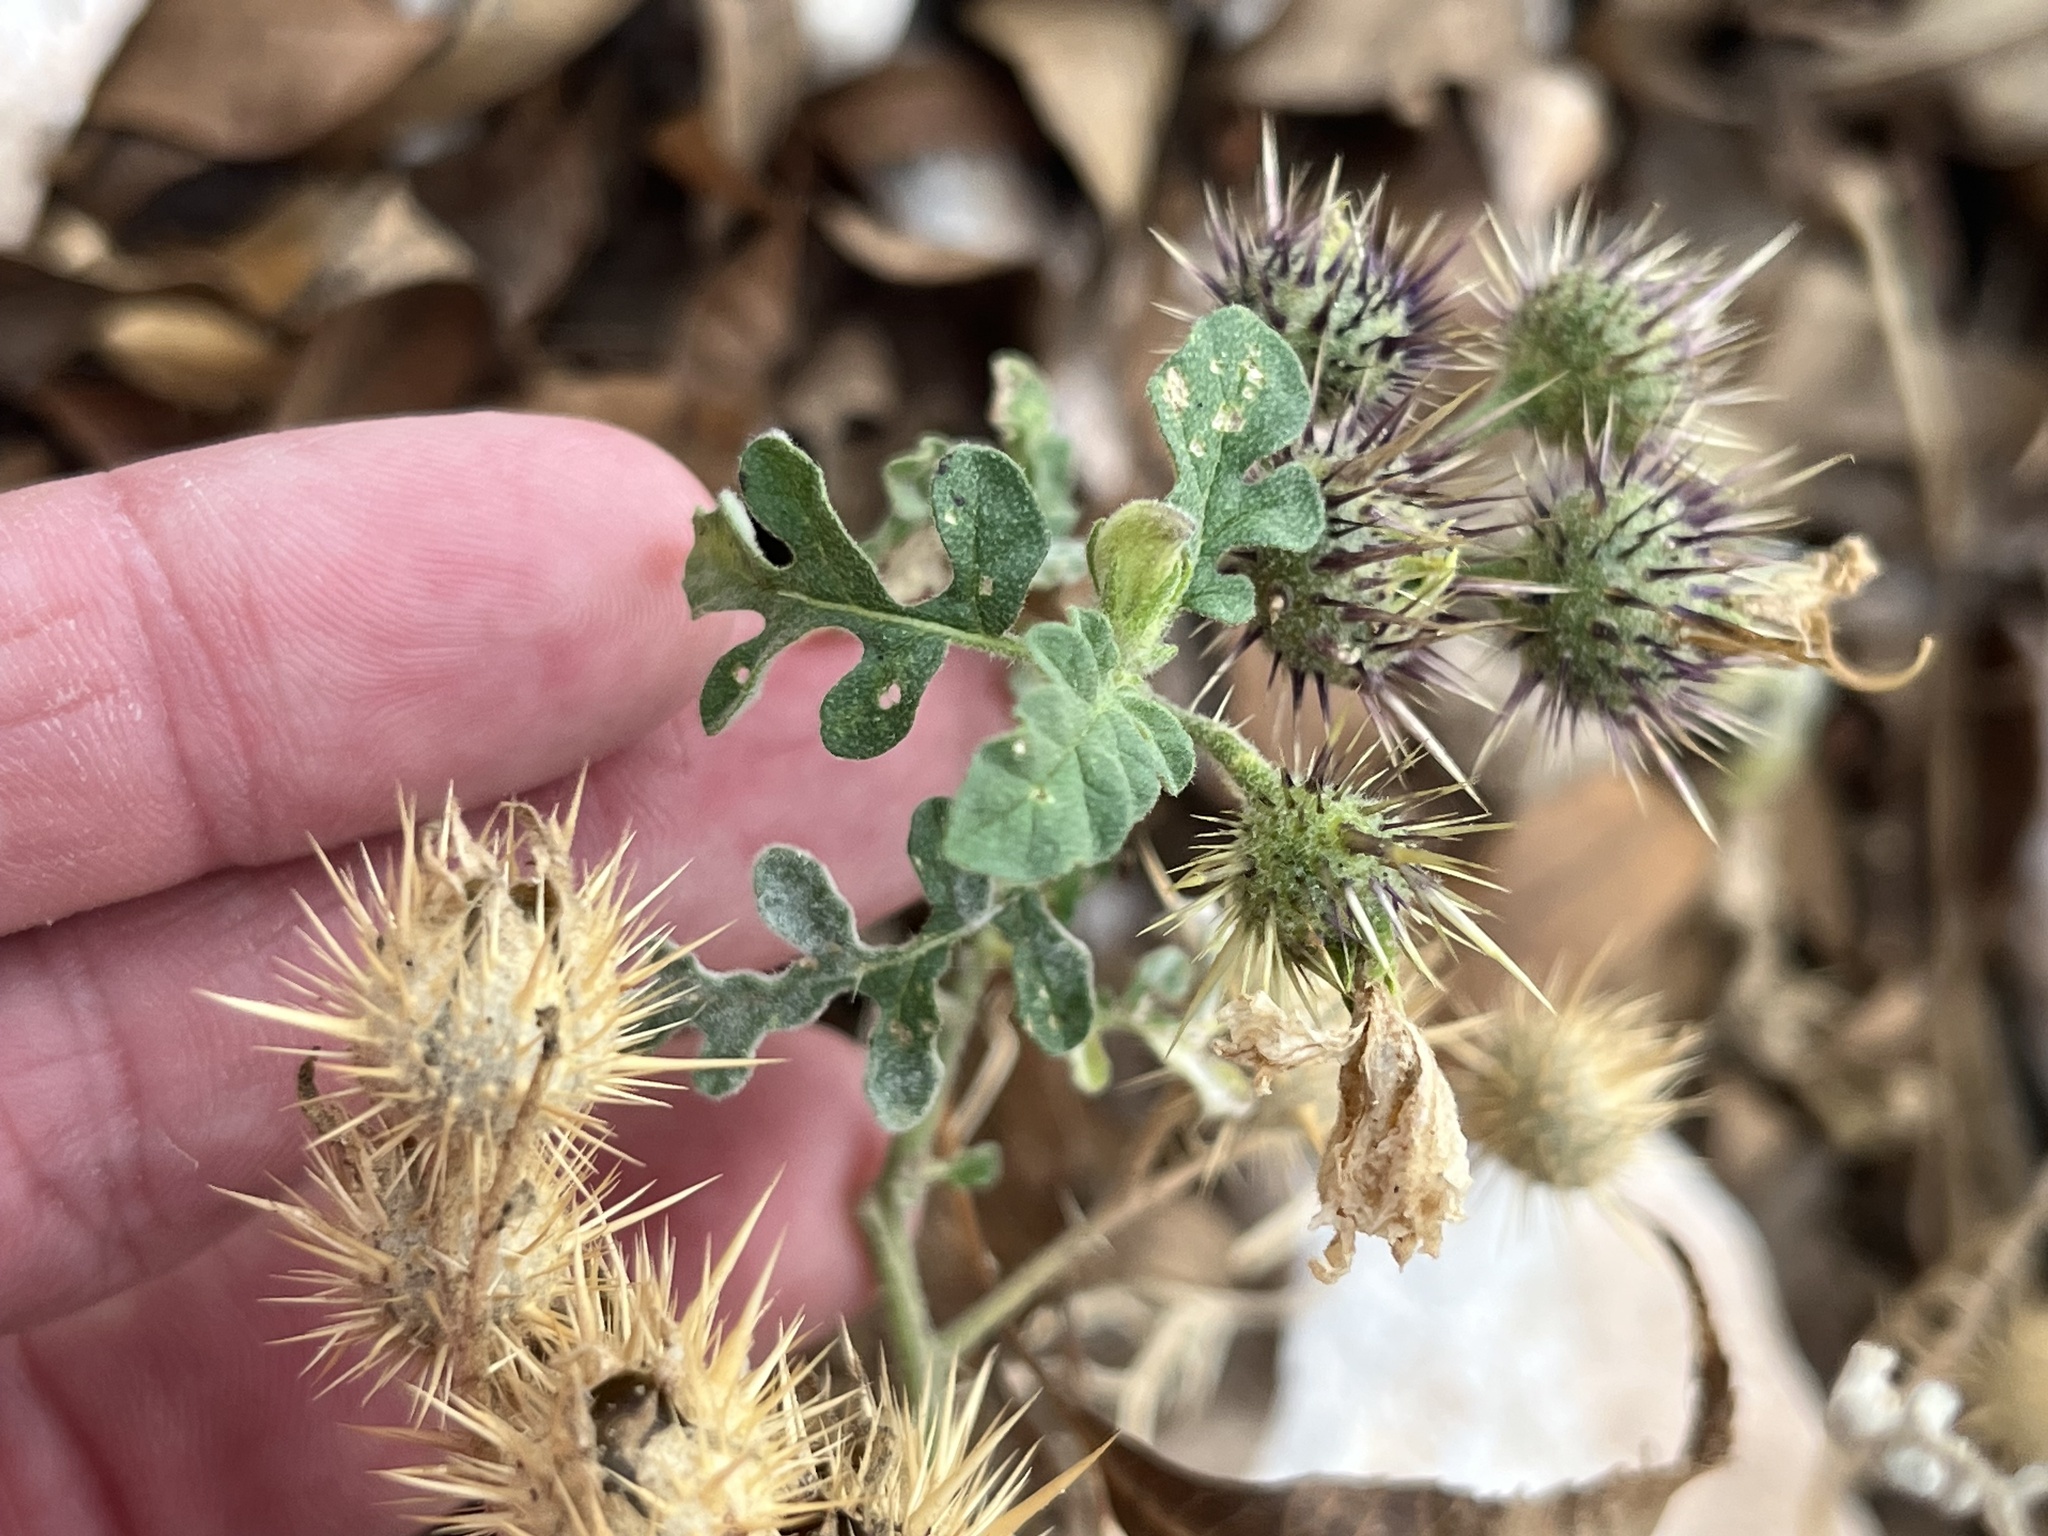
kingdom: Plantae
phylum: Tracheophyta
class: Magnoliopsida
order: Solanales
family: Solanaceae
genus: Solanum
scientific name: Solanum angustifolium
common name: Buffalobur nightshade
